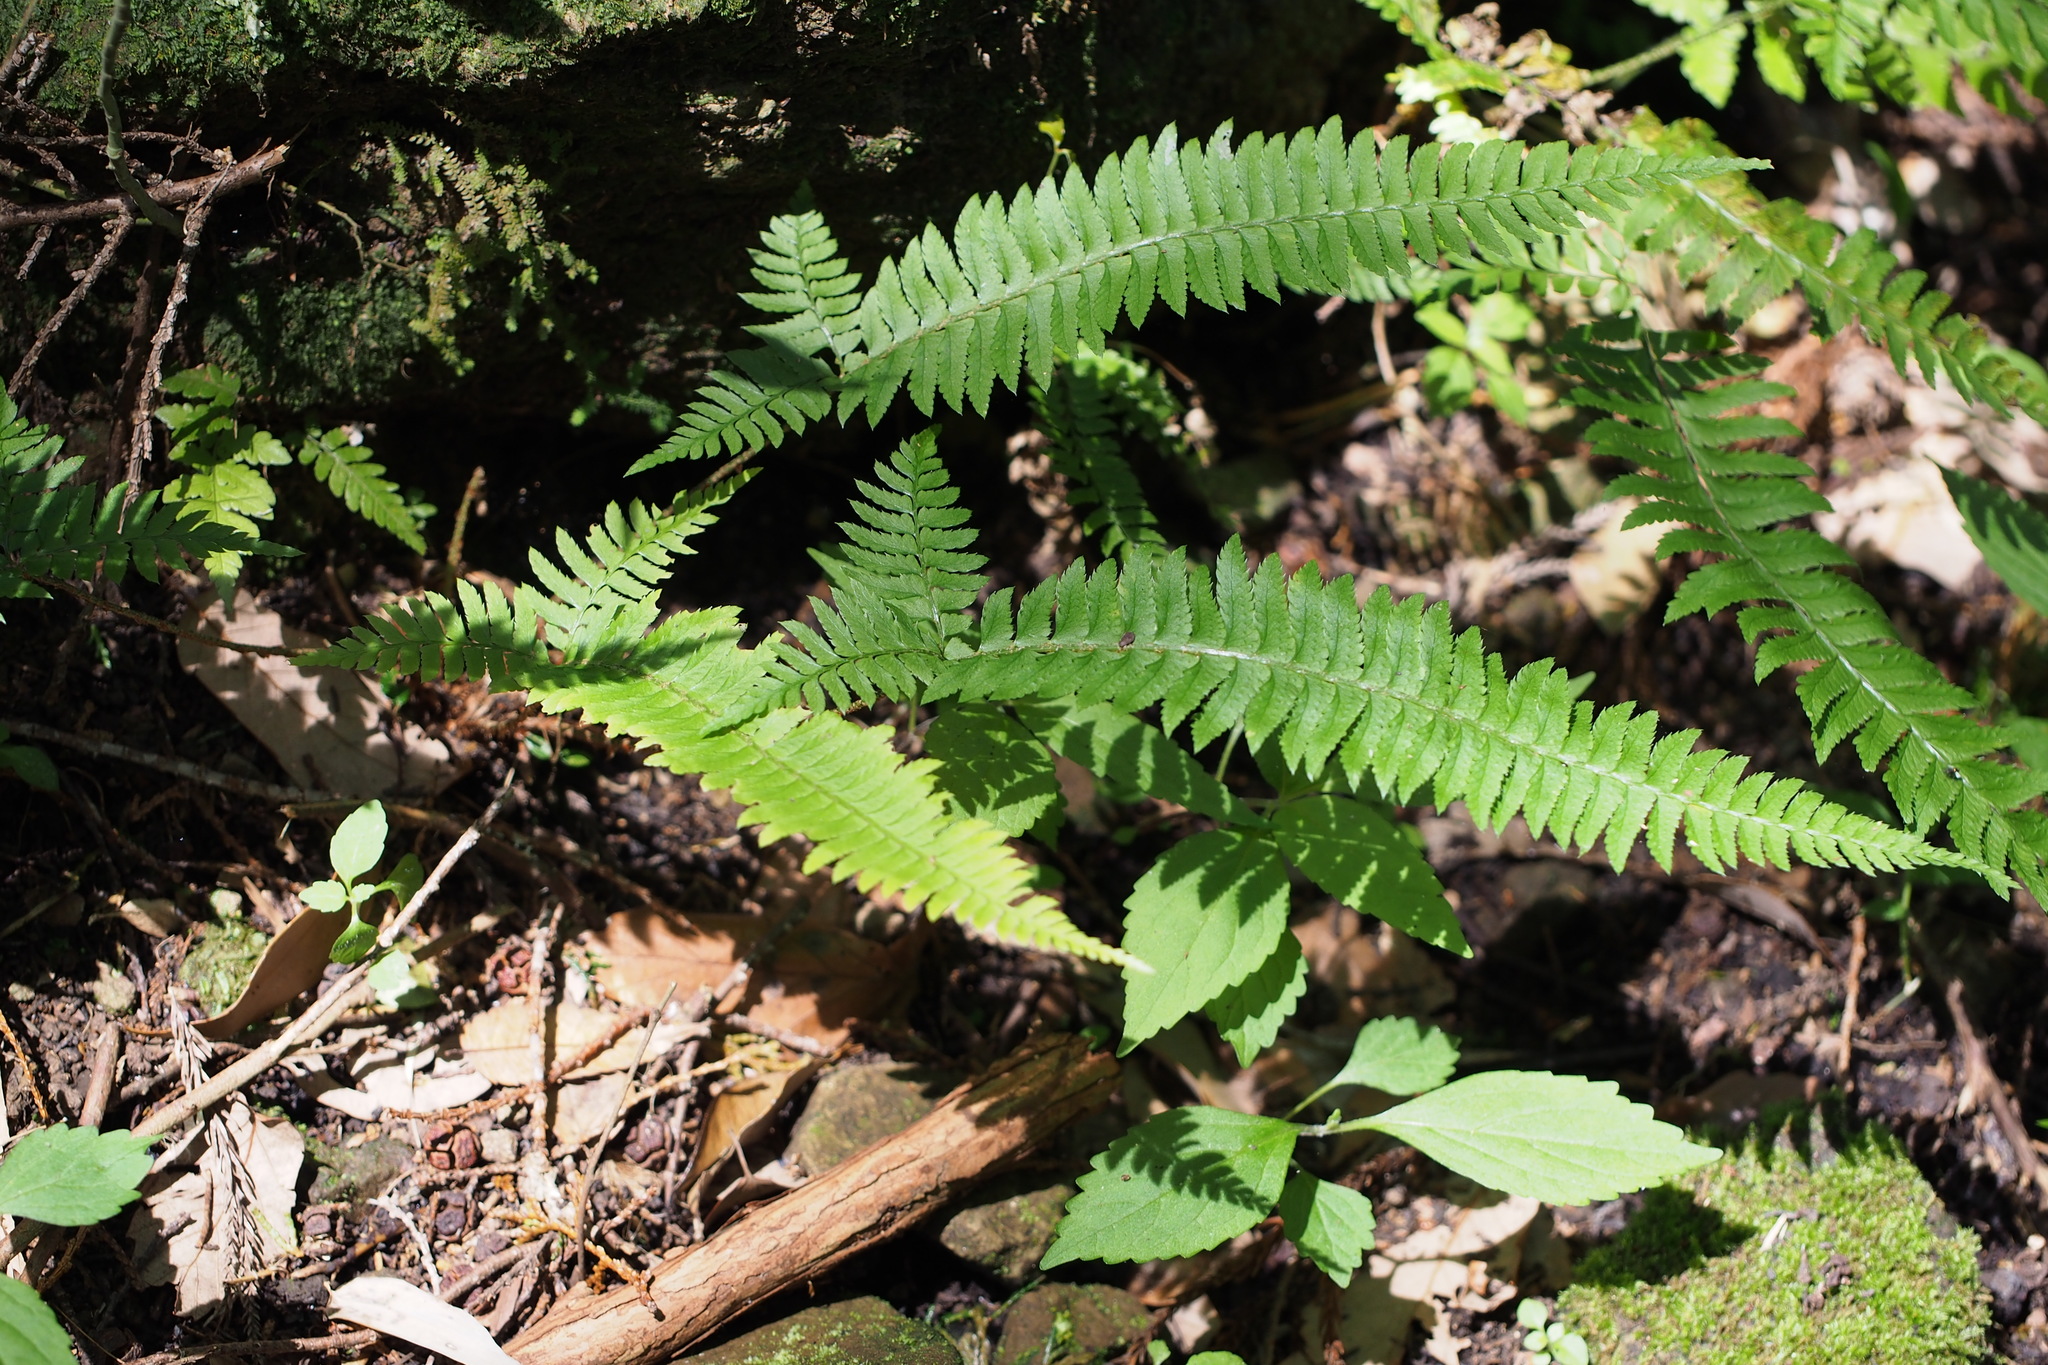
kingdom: Plantae
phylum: Tracheophyta
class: Polypodiopsida
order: Polypodiales
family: Dryopteridaceae
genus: Polystichum
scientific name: Polystichum tripteron
